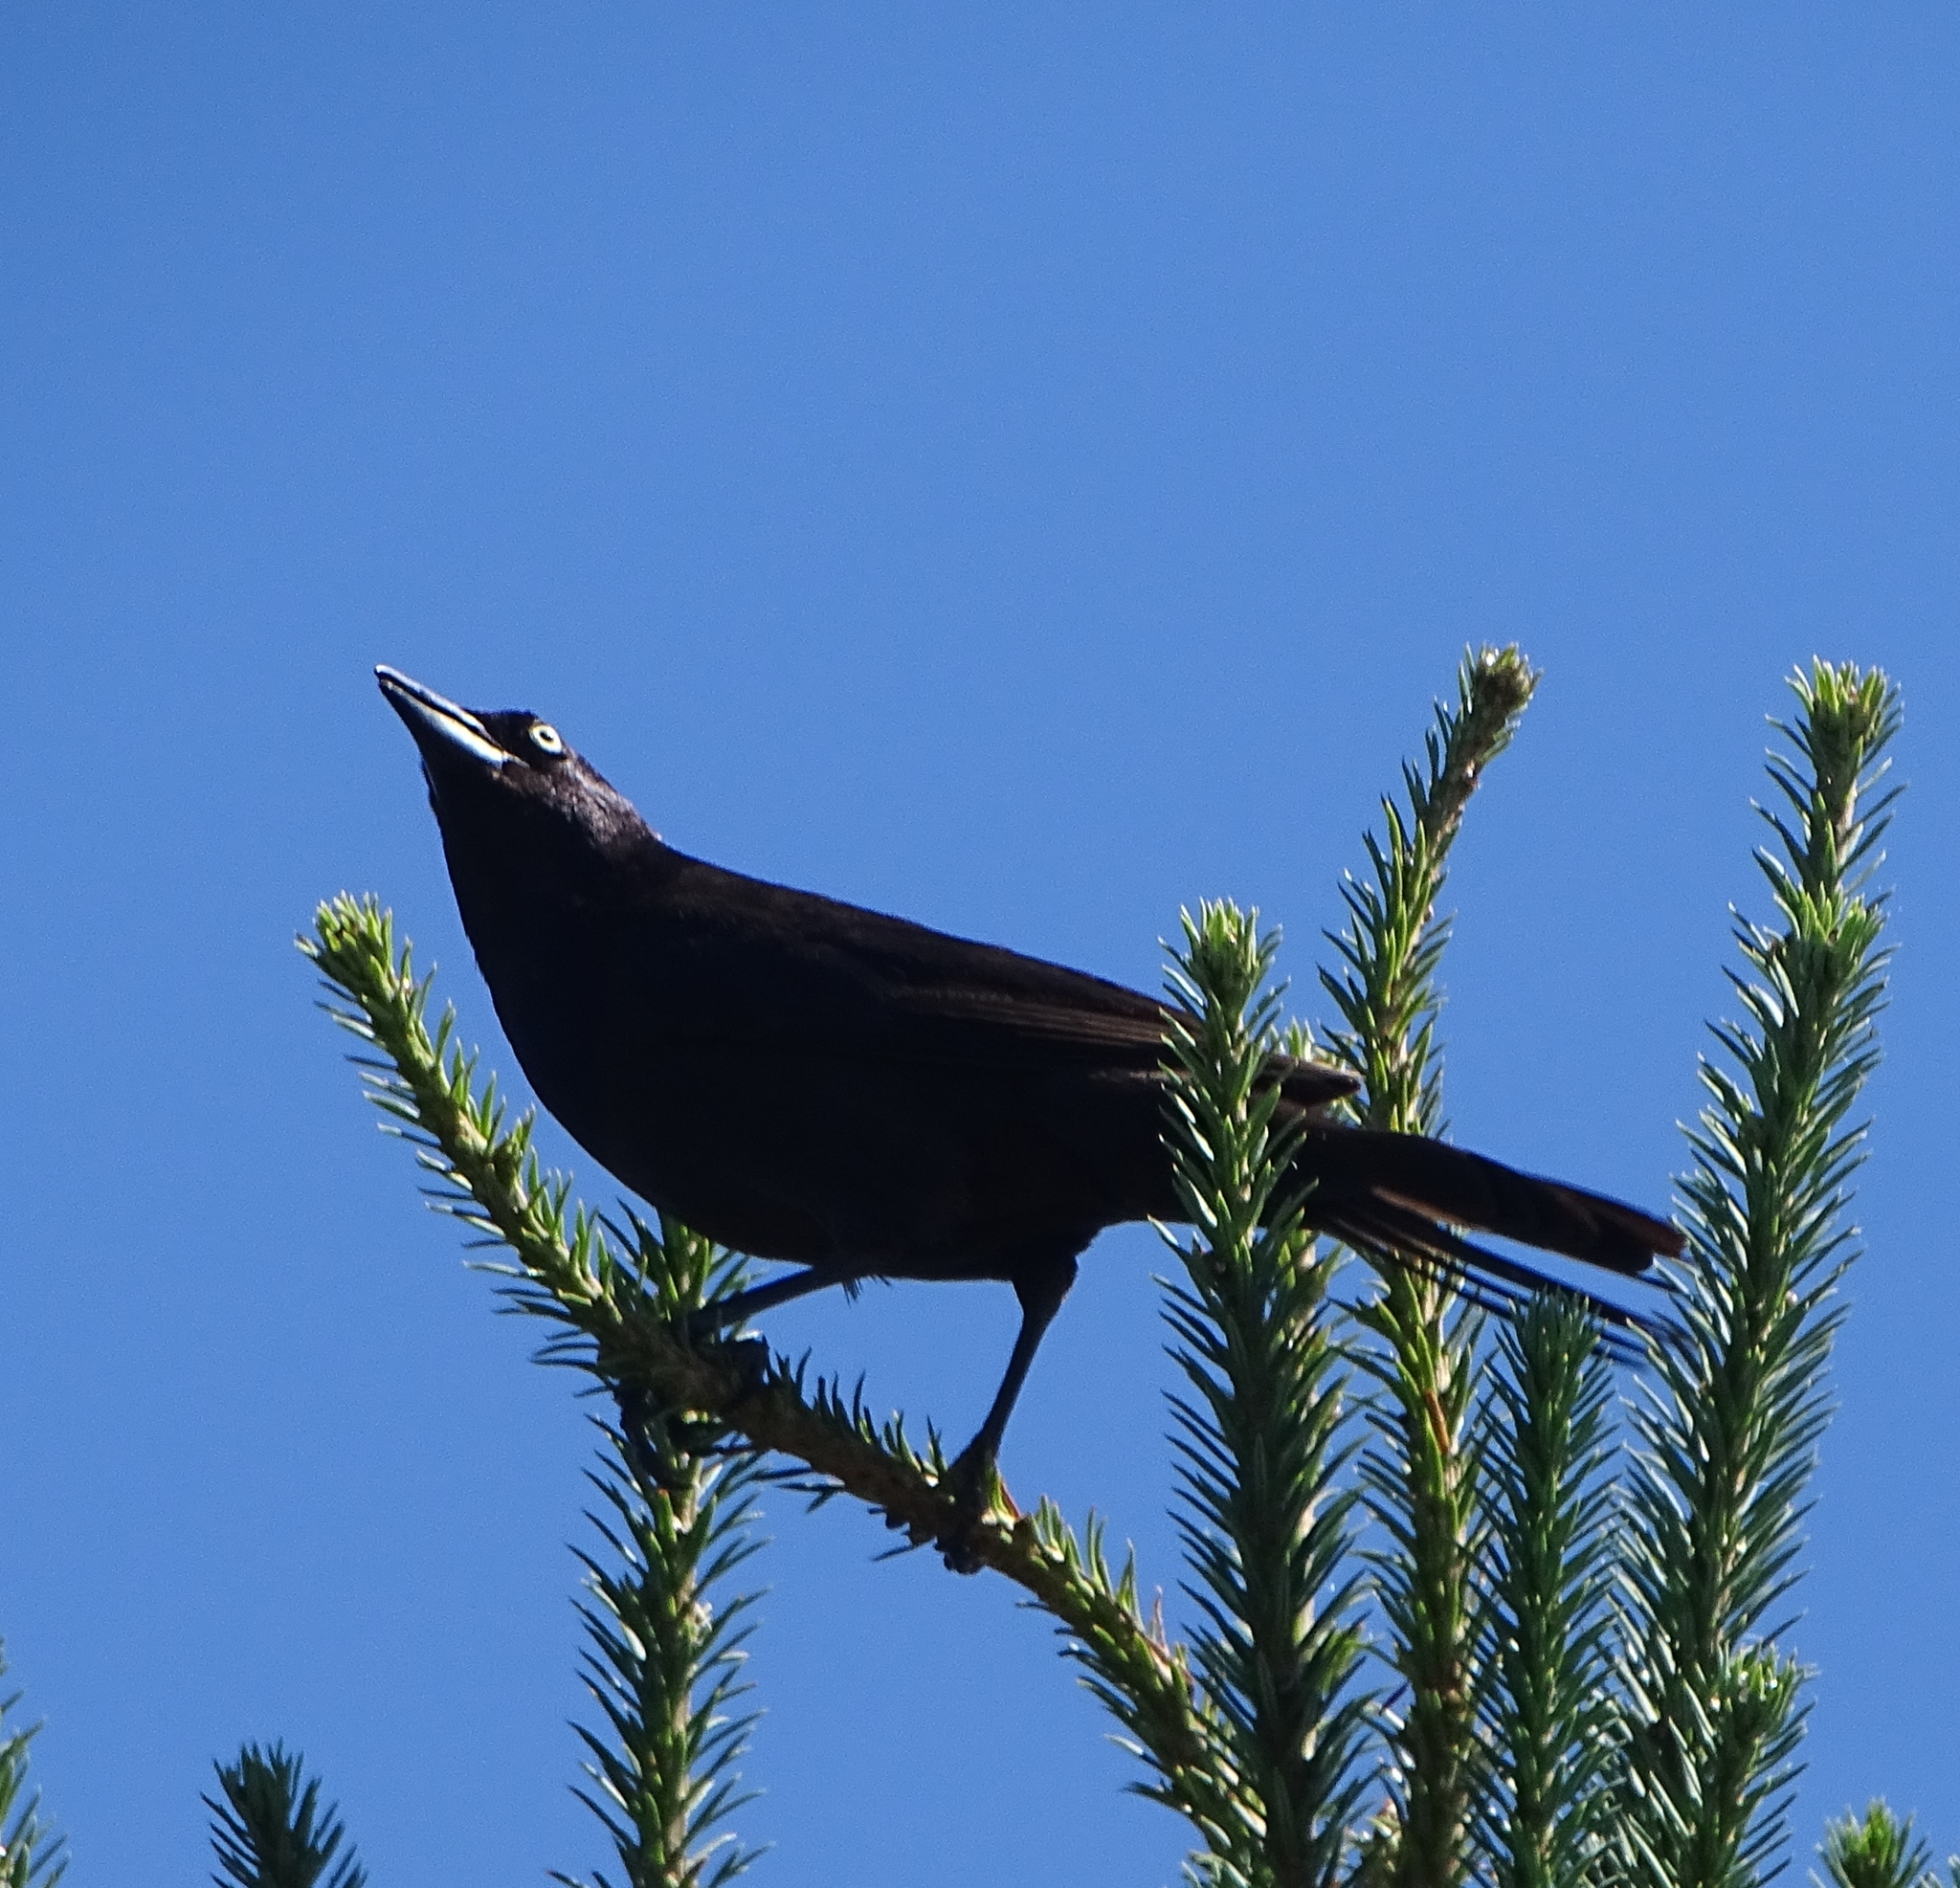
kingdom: Animalia
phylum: Chordata
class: Aves
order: Passeriformes
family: Icteridae
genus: Quiscalus
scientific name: Quiscalus quiscula
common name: Common grackle
